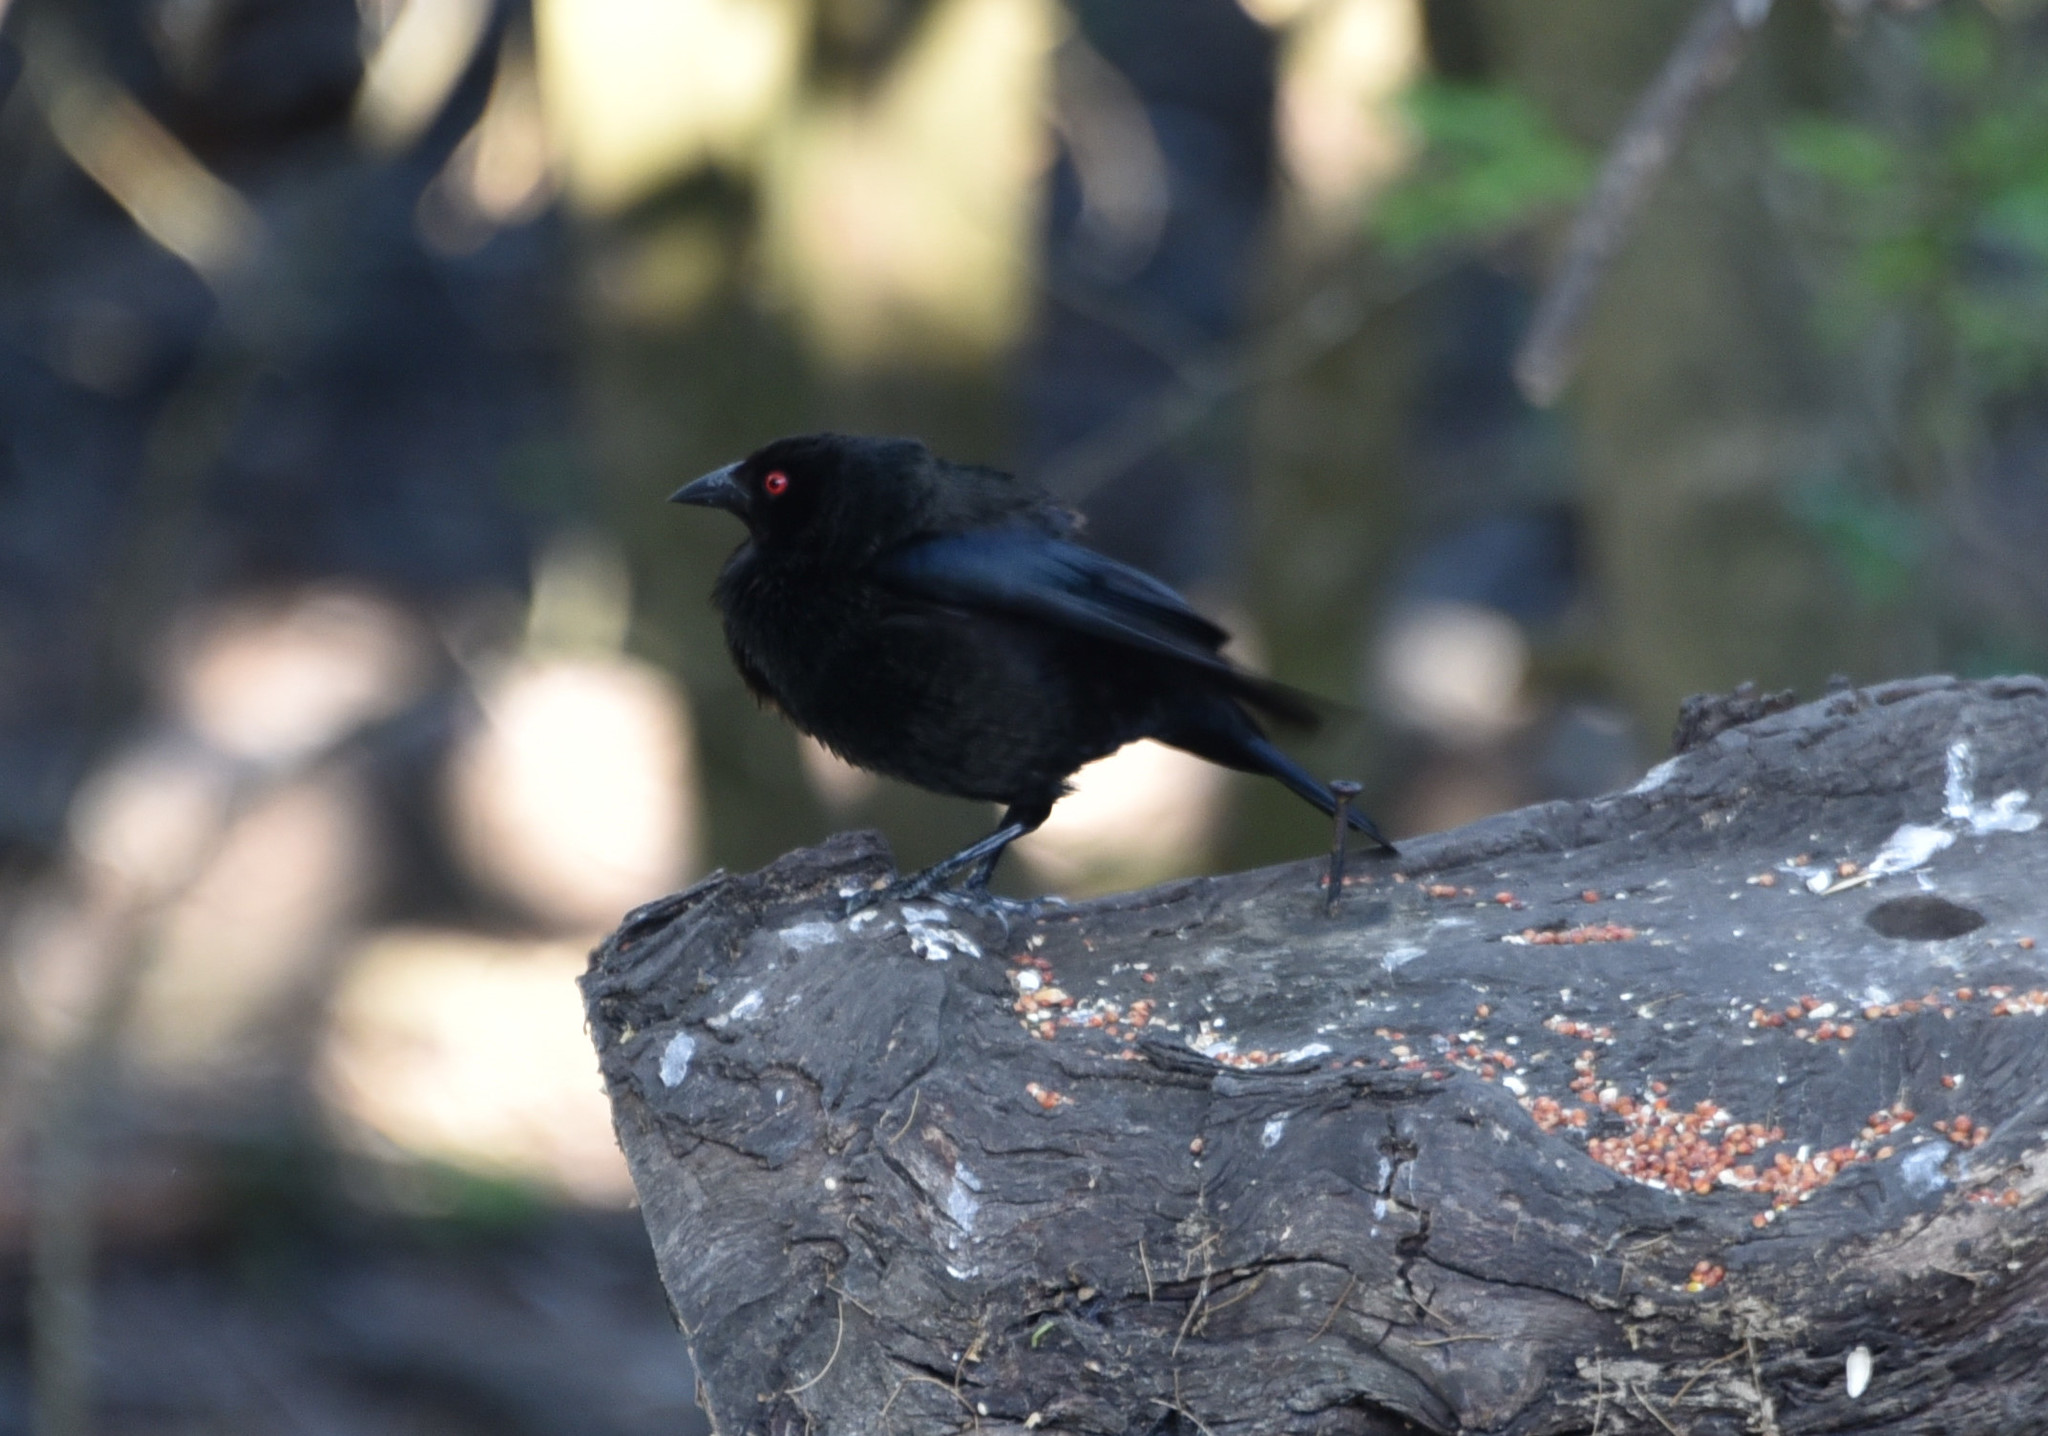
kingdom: Animalia
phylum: Chordata
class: Aves
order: Passeriformes
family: Icteridae
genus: Molothrus
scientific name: Molothrus aeneus
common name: Bronzed cowbird
